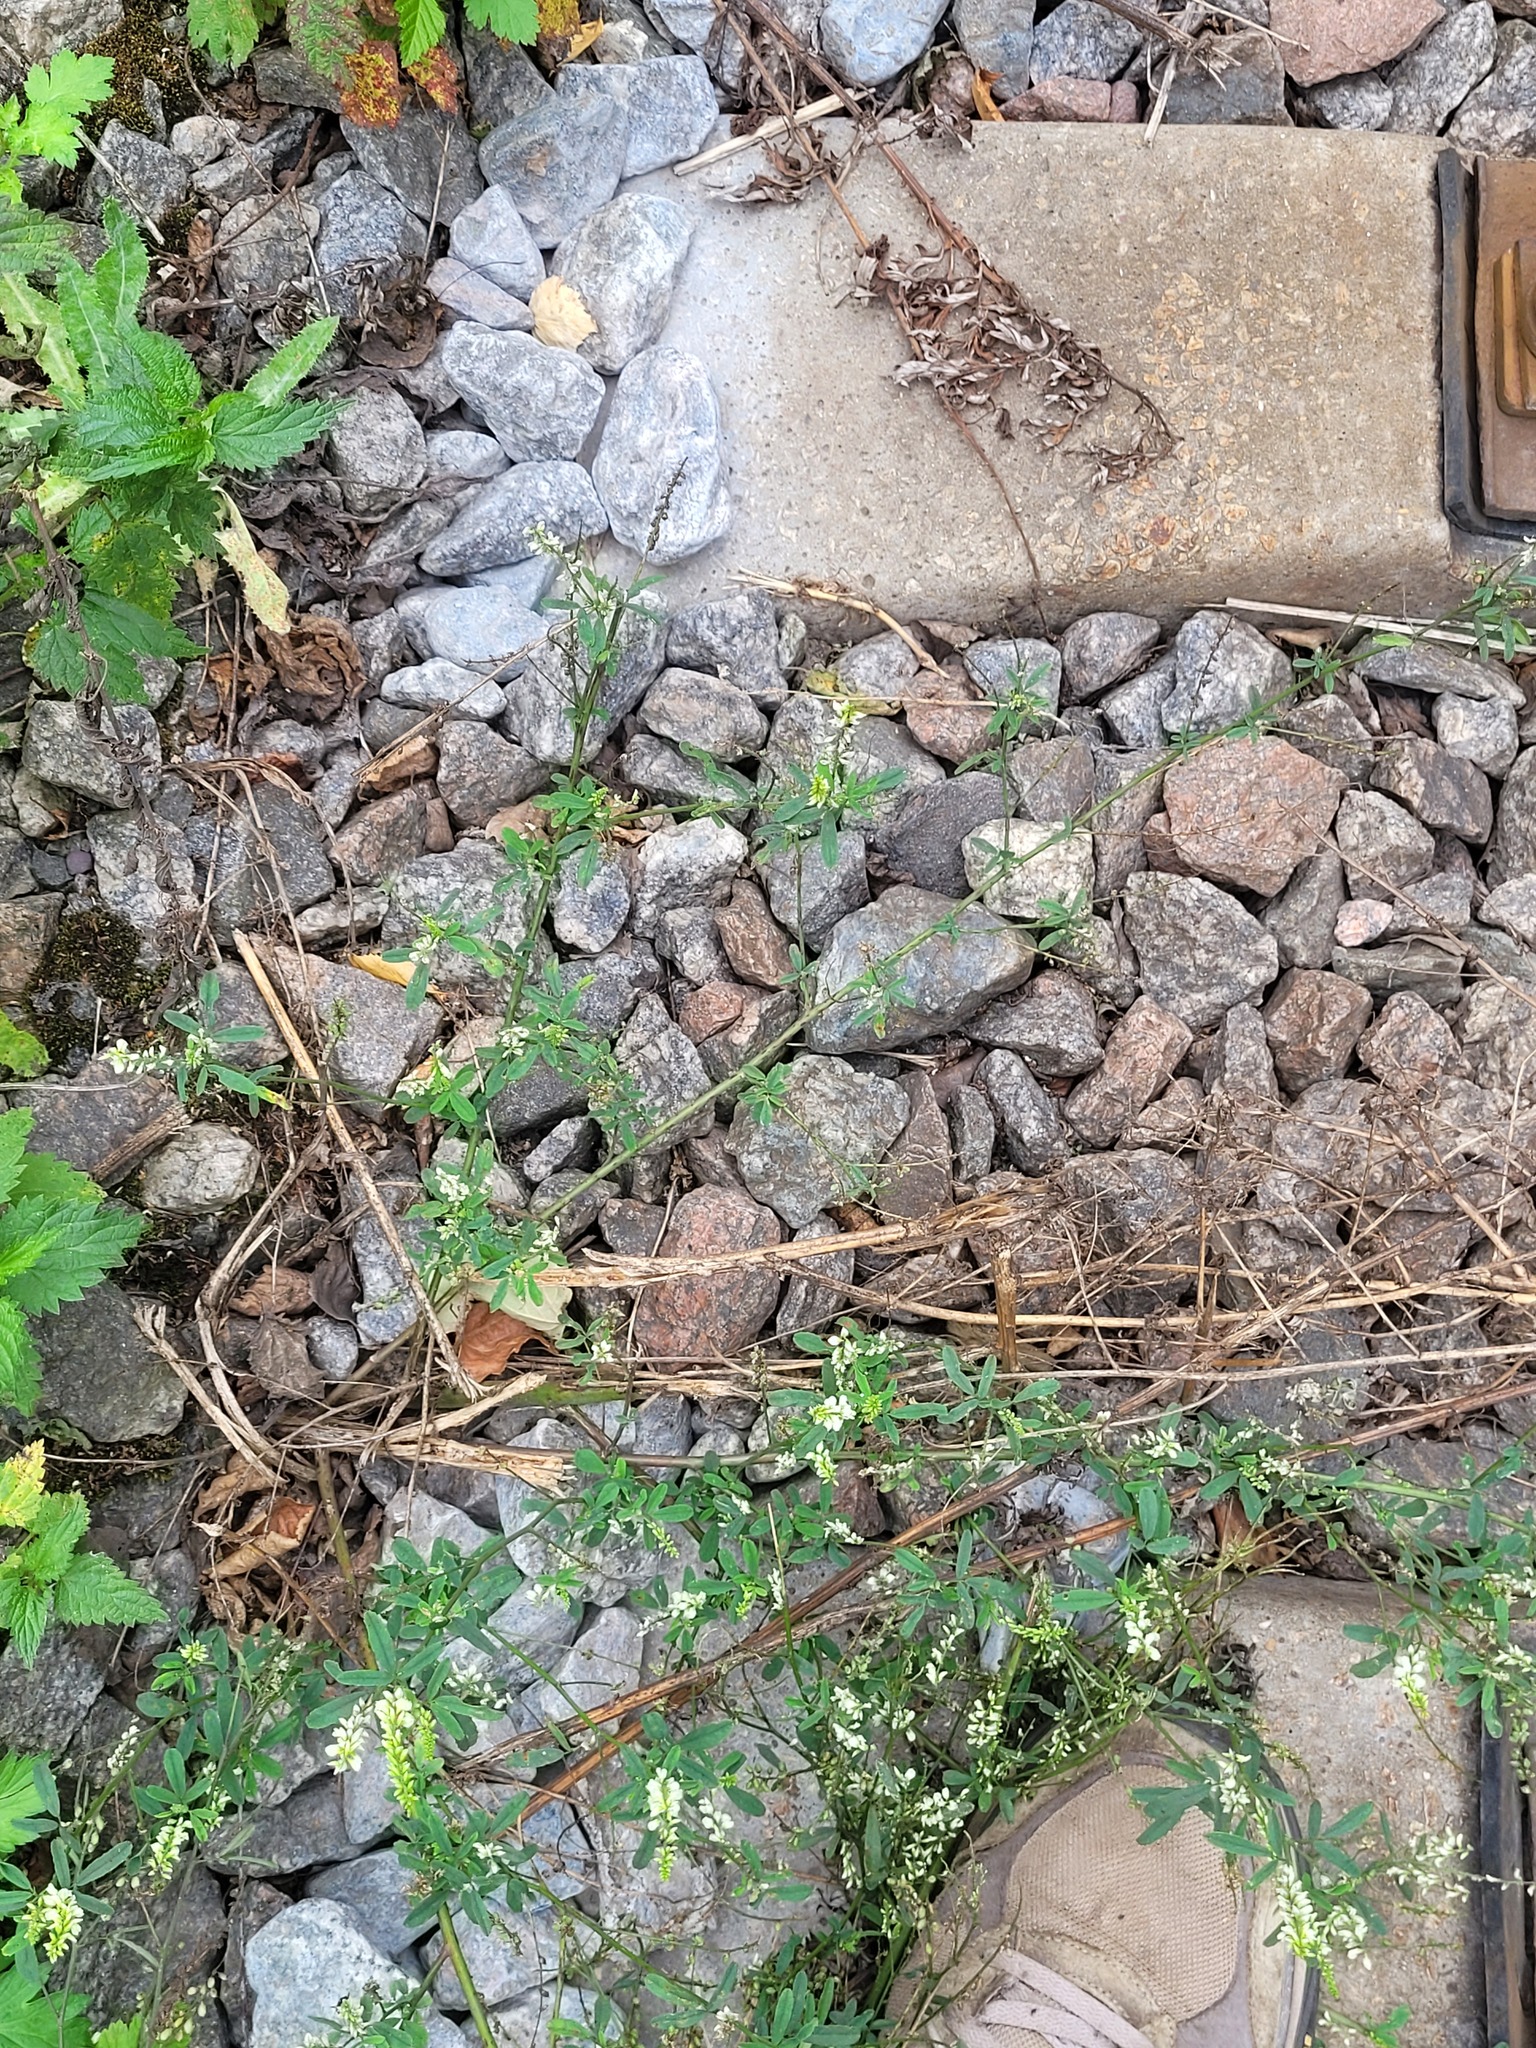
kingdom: Plantae
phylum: Tracheophyta
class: Magnoliopsida
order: Fabales
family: Fabaceae
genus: Melilotus
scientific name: Melilotus albus
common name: White melilot
